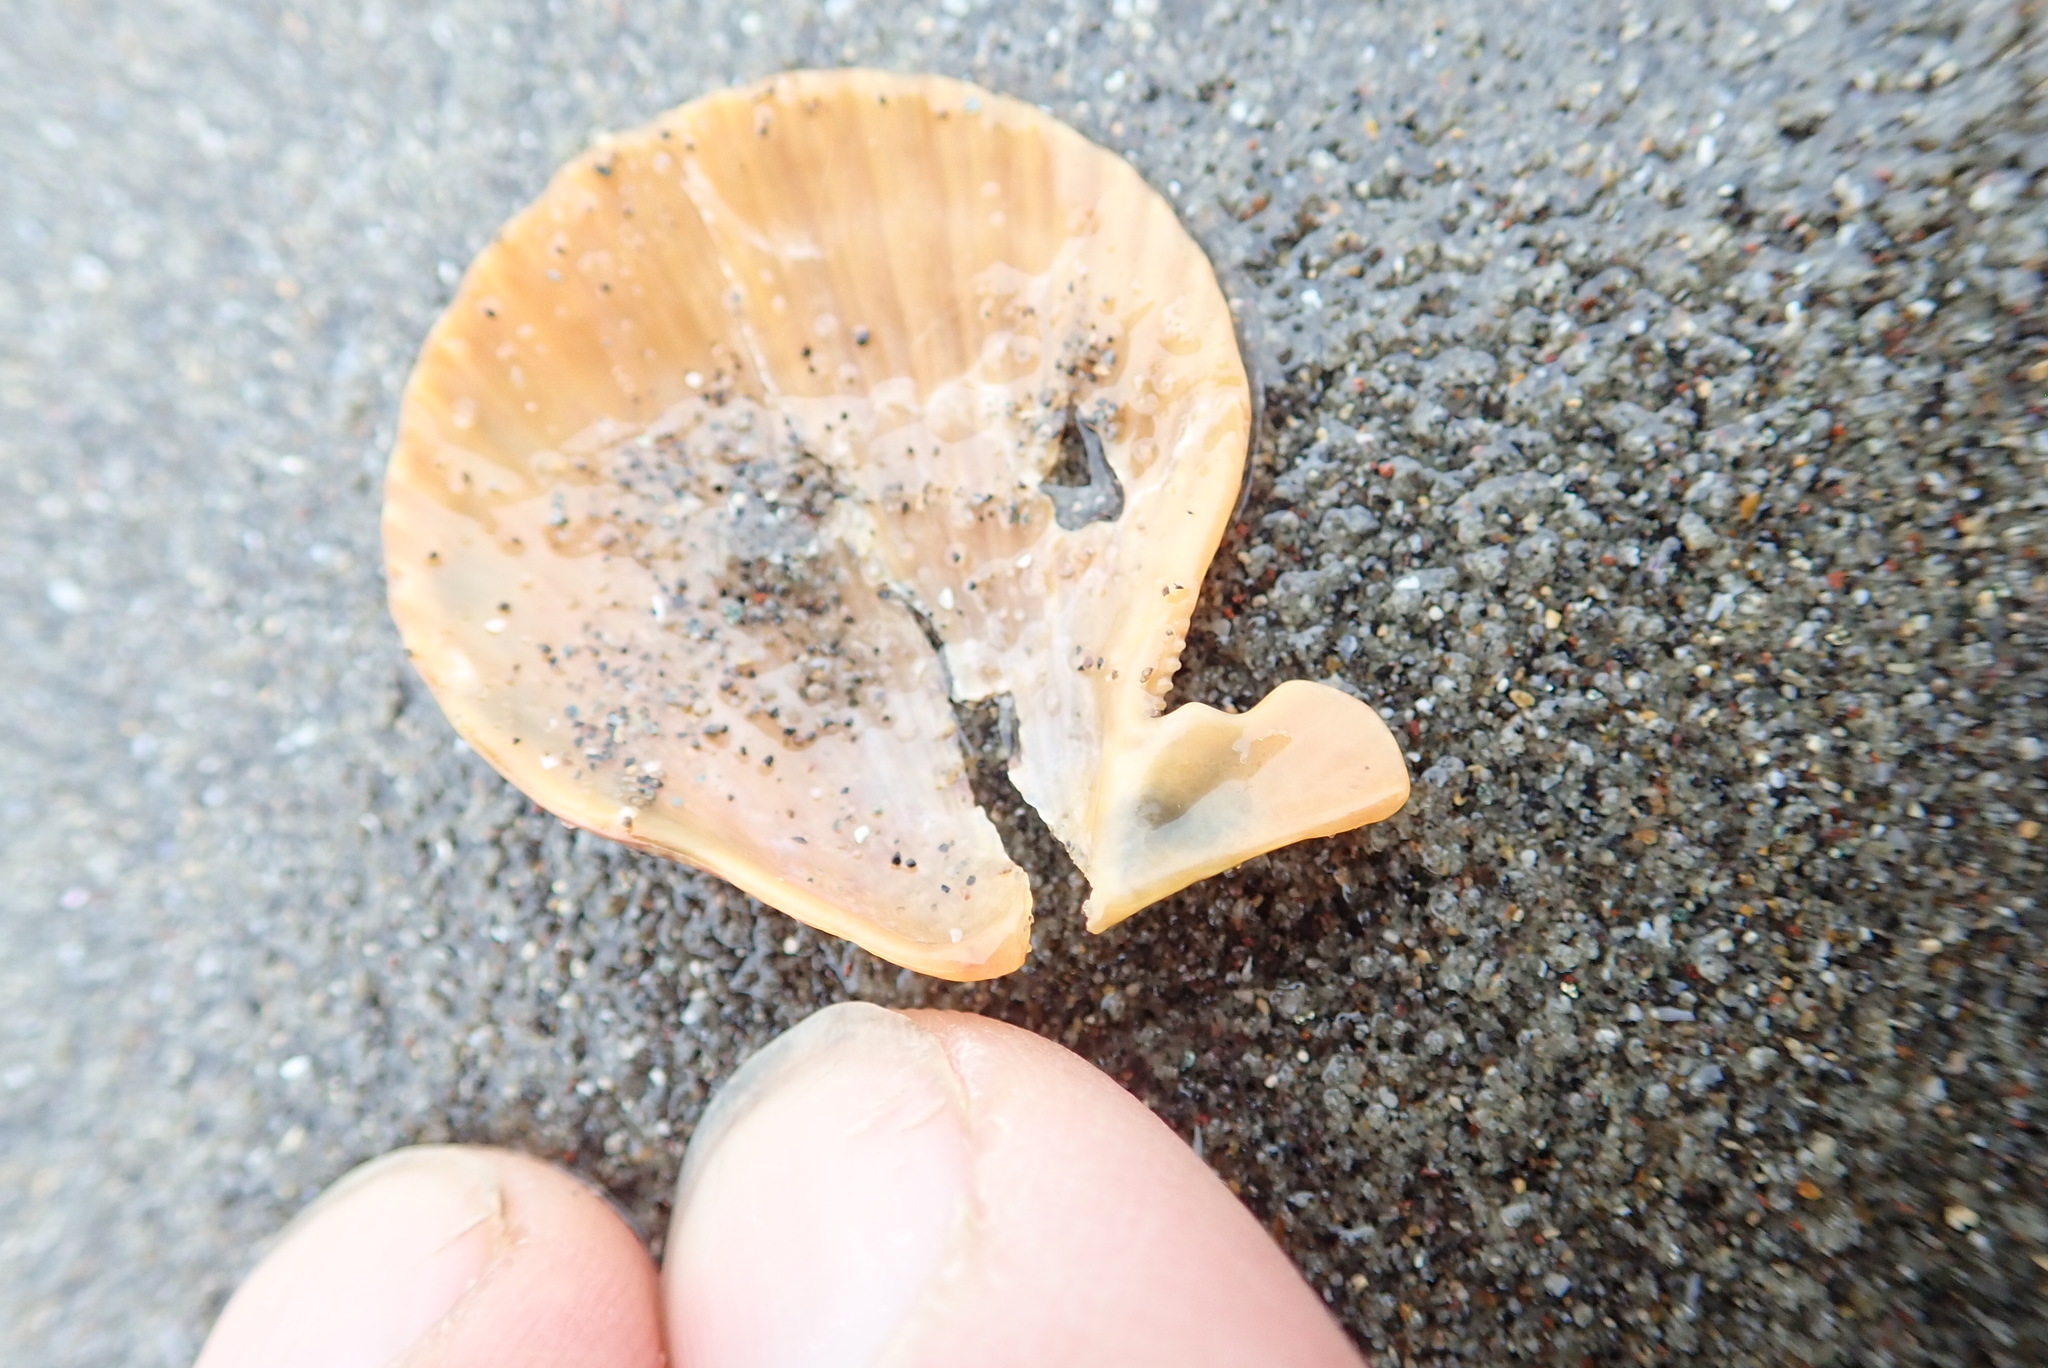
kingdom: Animalia
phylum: Mollusca
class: Bivalvia
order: Pectinida
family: Pectinidae
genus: Talochlamys
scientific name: Talochlamys zelandiae
